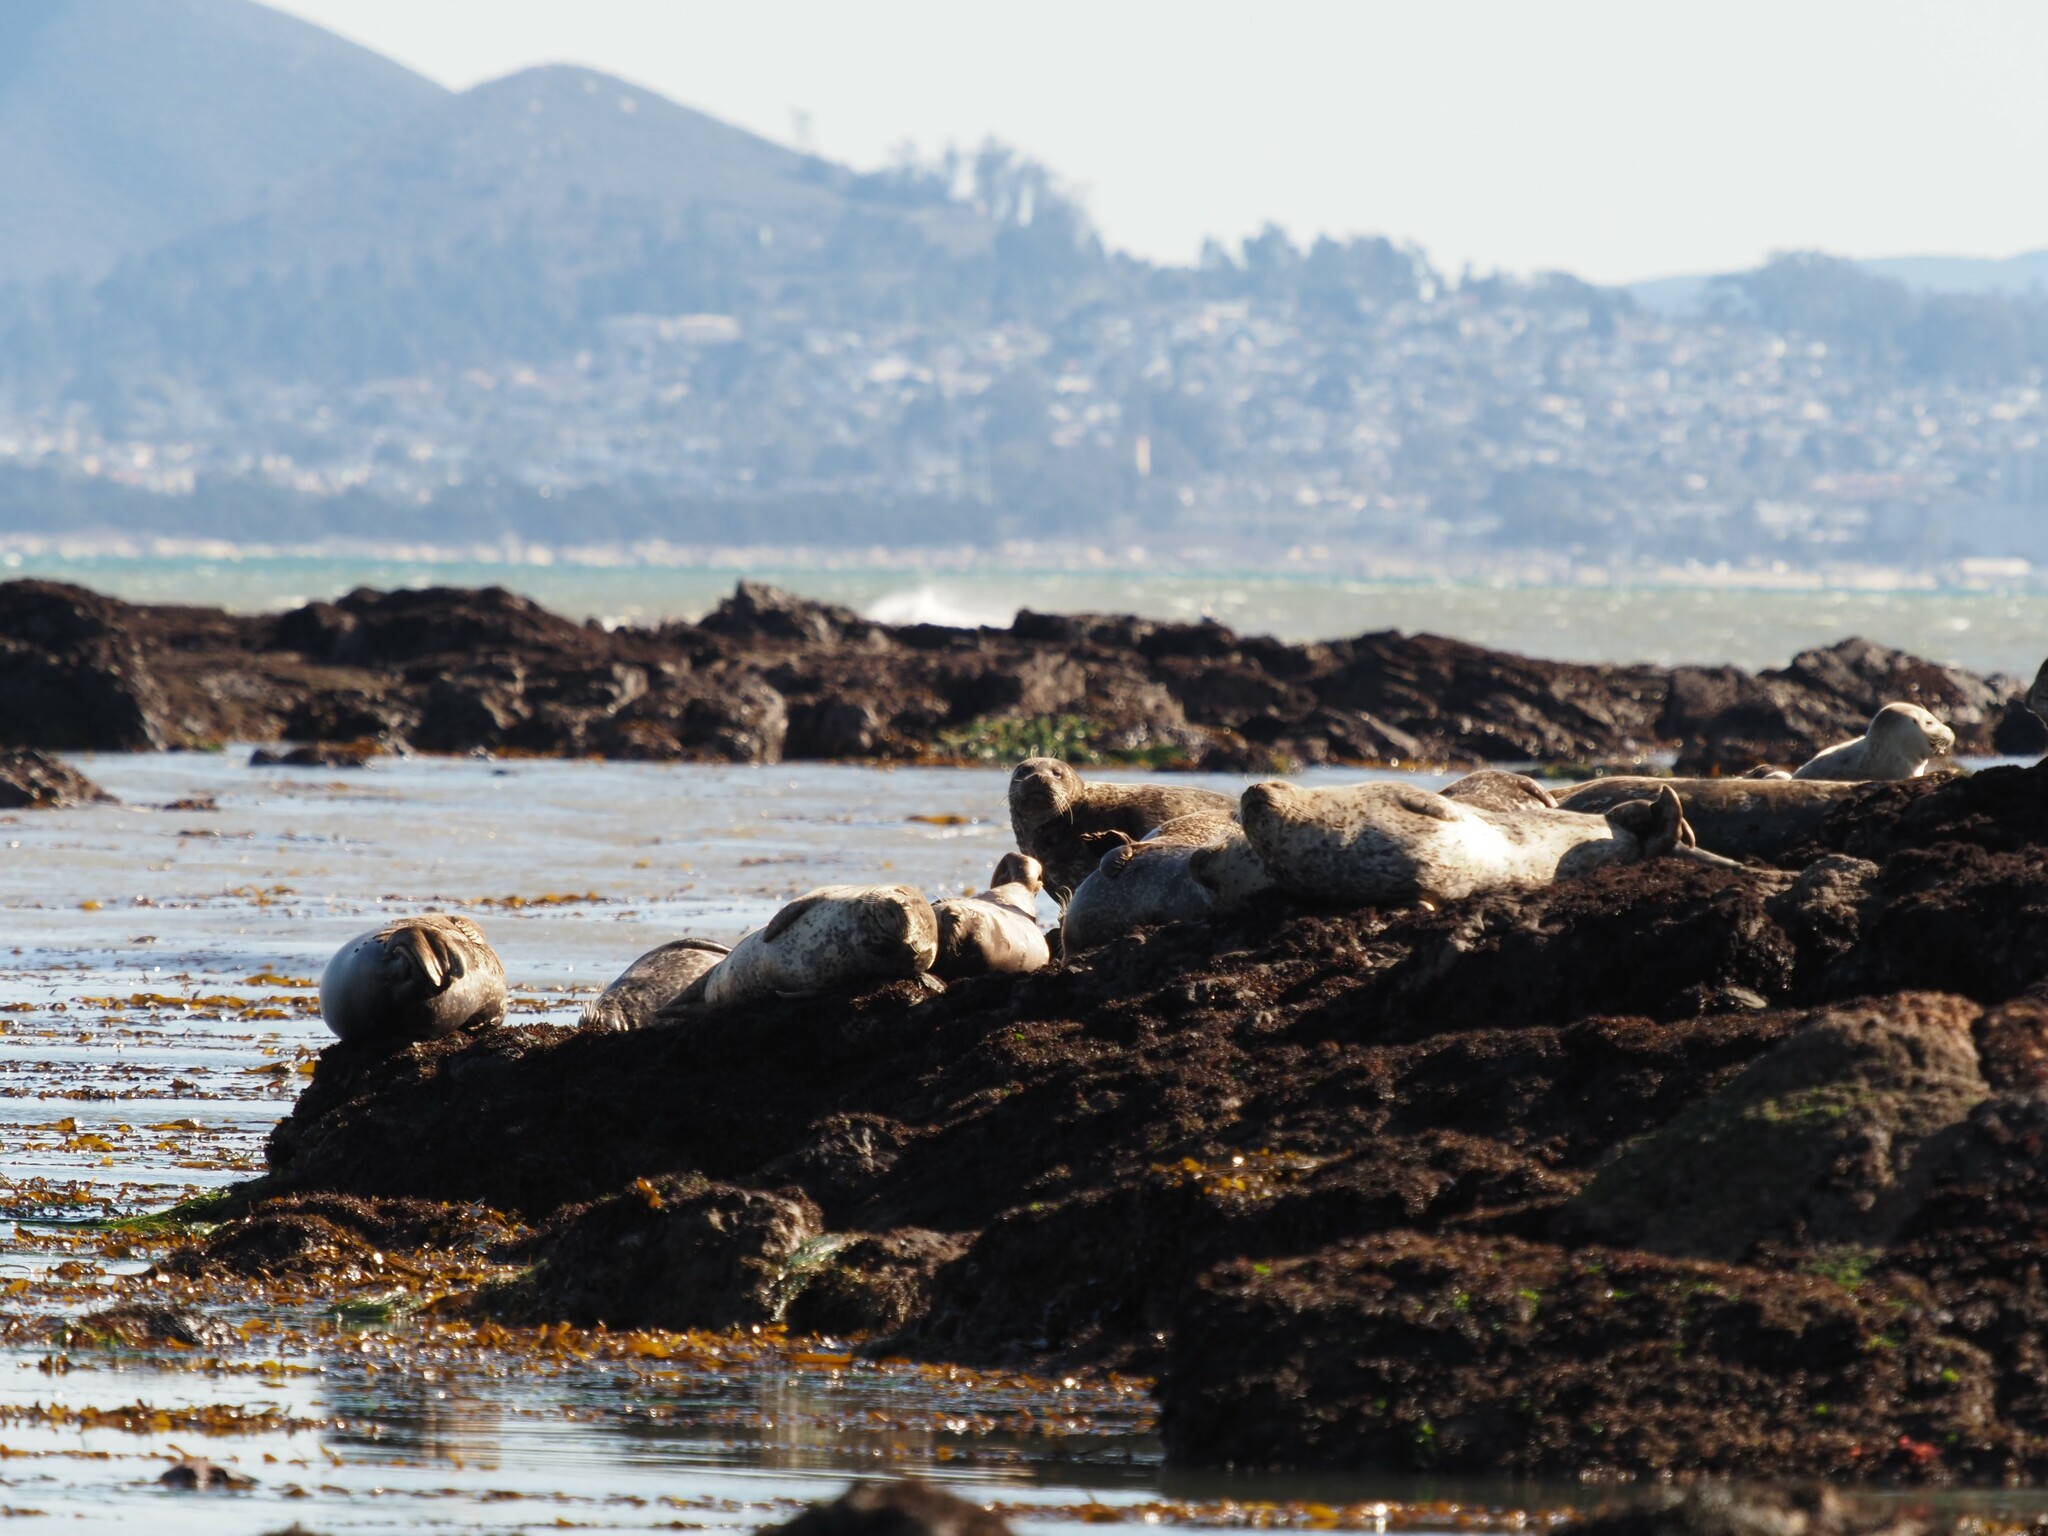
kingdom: Animalia
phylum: Chordata
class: Mammalia
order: Carnivora
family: Phocidae
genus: Phoca
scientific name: Phoca vitulina
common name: Harbor seal
